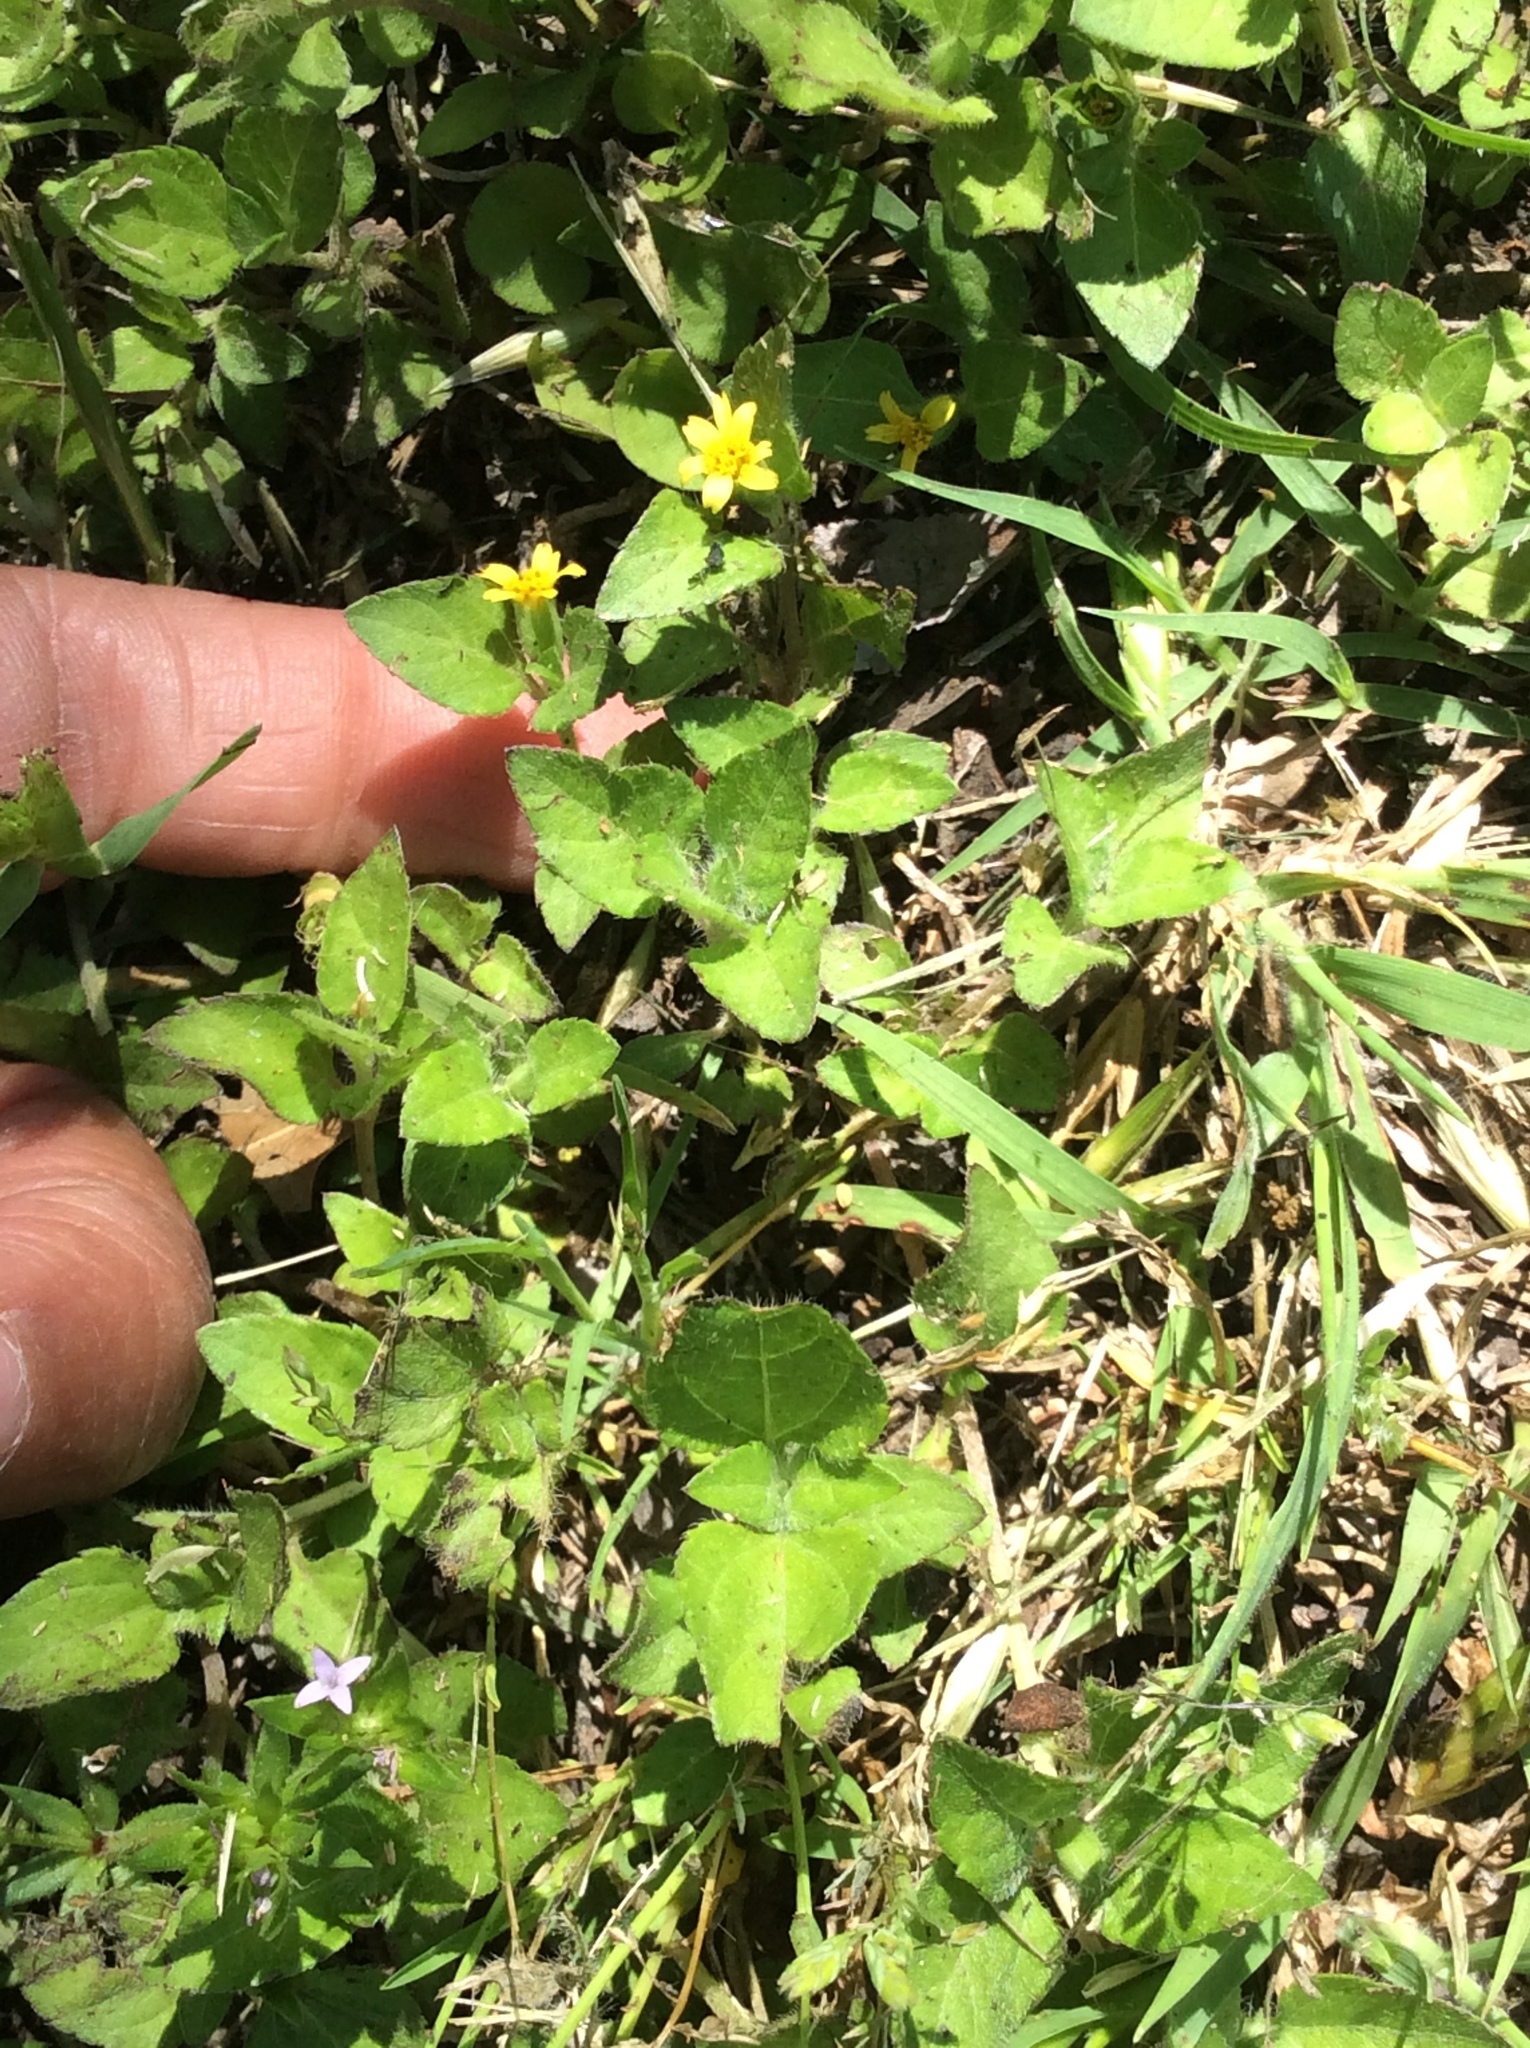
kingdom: Plantae
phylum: Tracheophyta
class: Magnoliopsida
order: Asterales
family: Asteraceae
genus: Calyptocarpus
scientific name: Calyptocarpus vialis
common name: Straggler daisy
